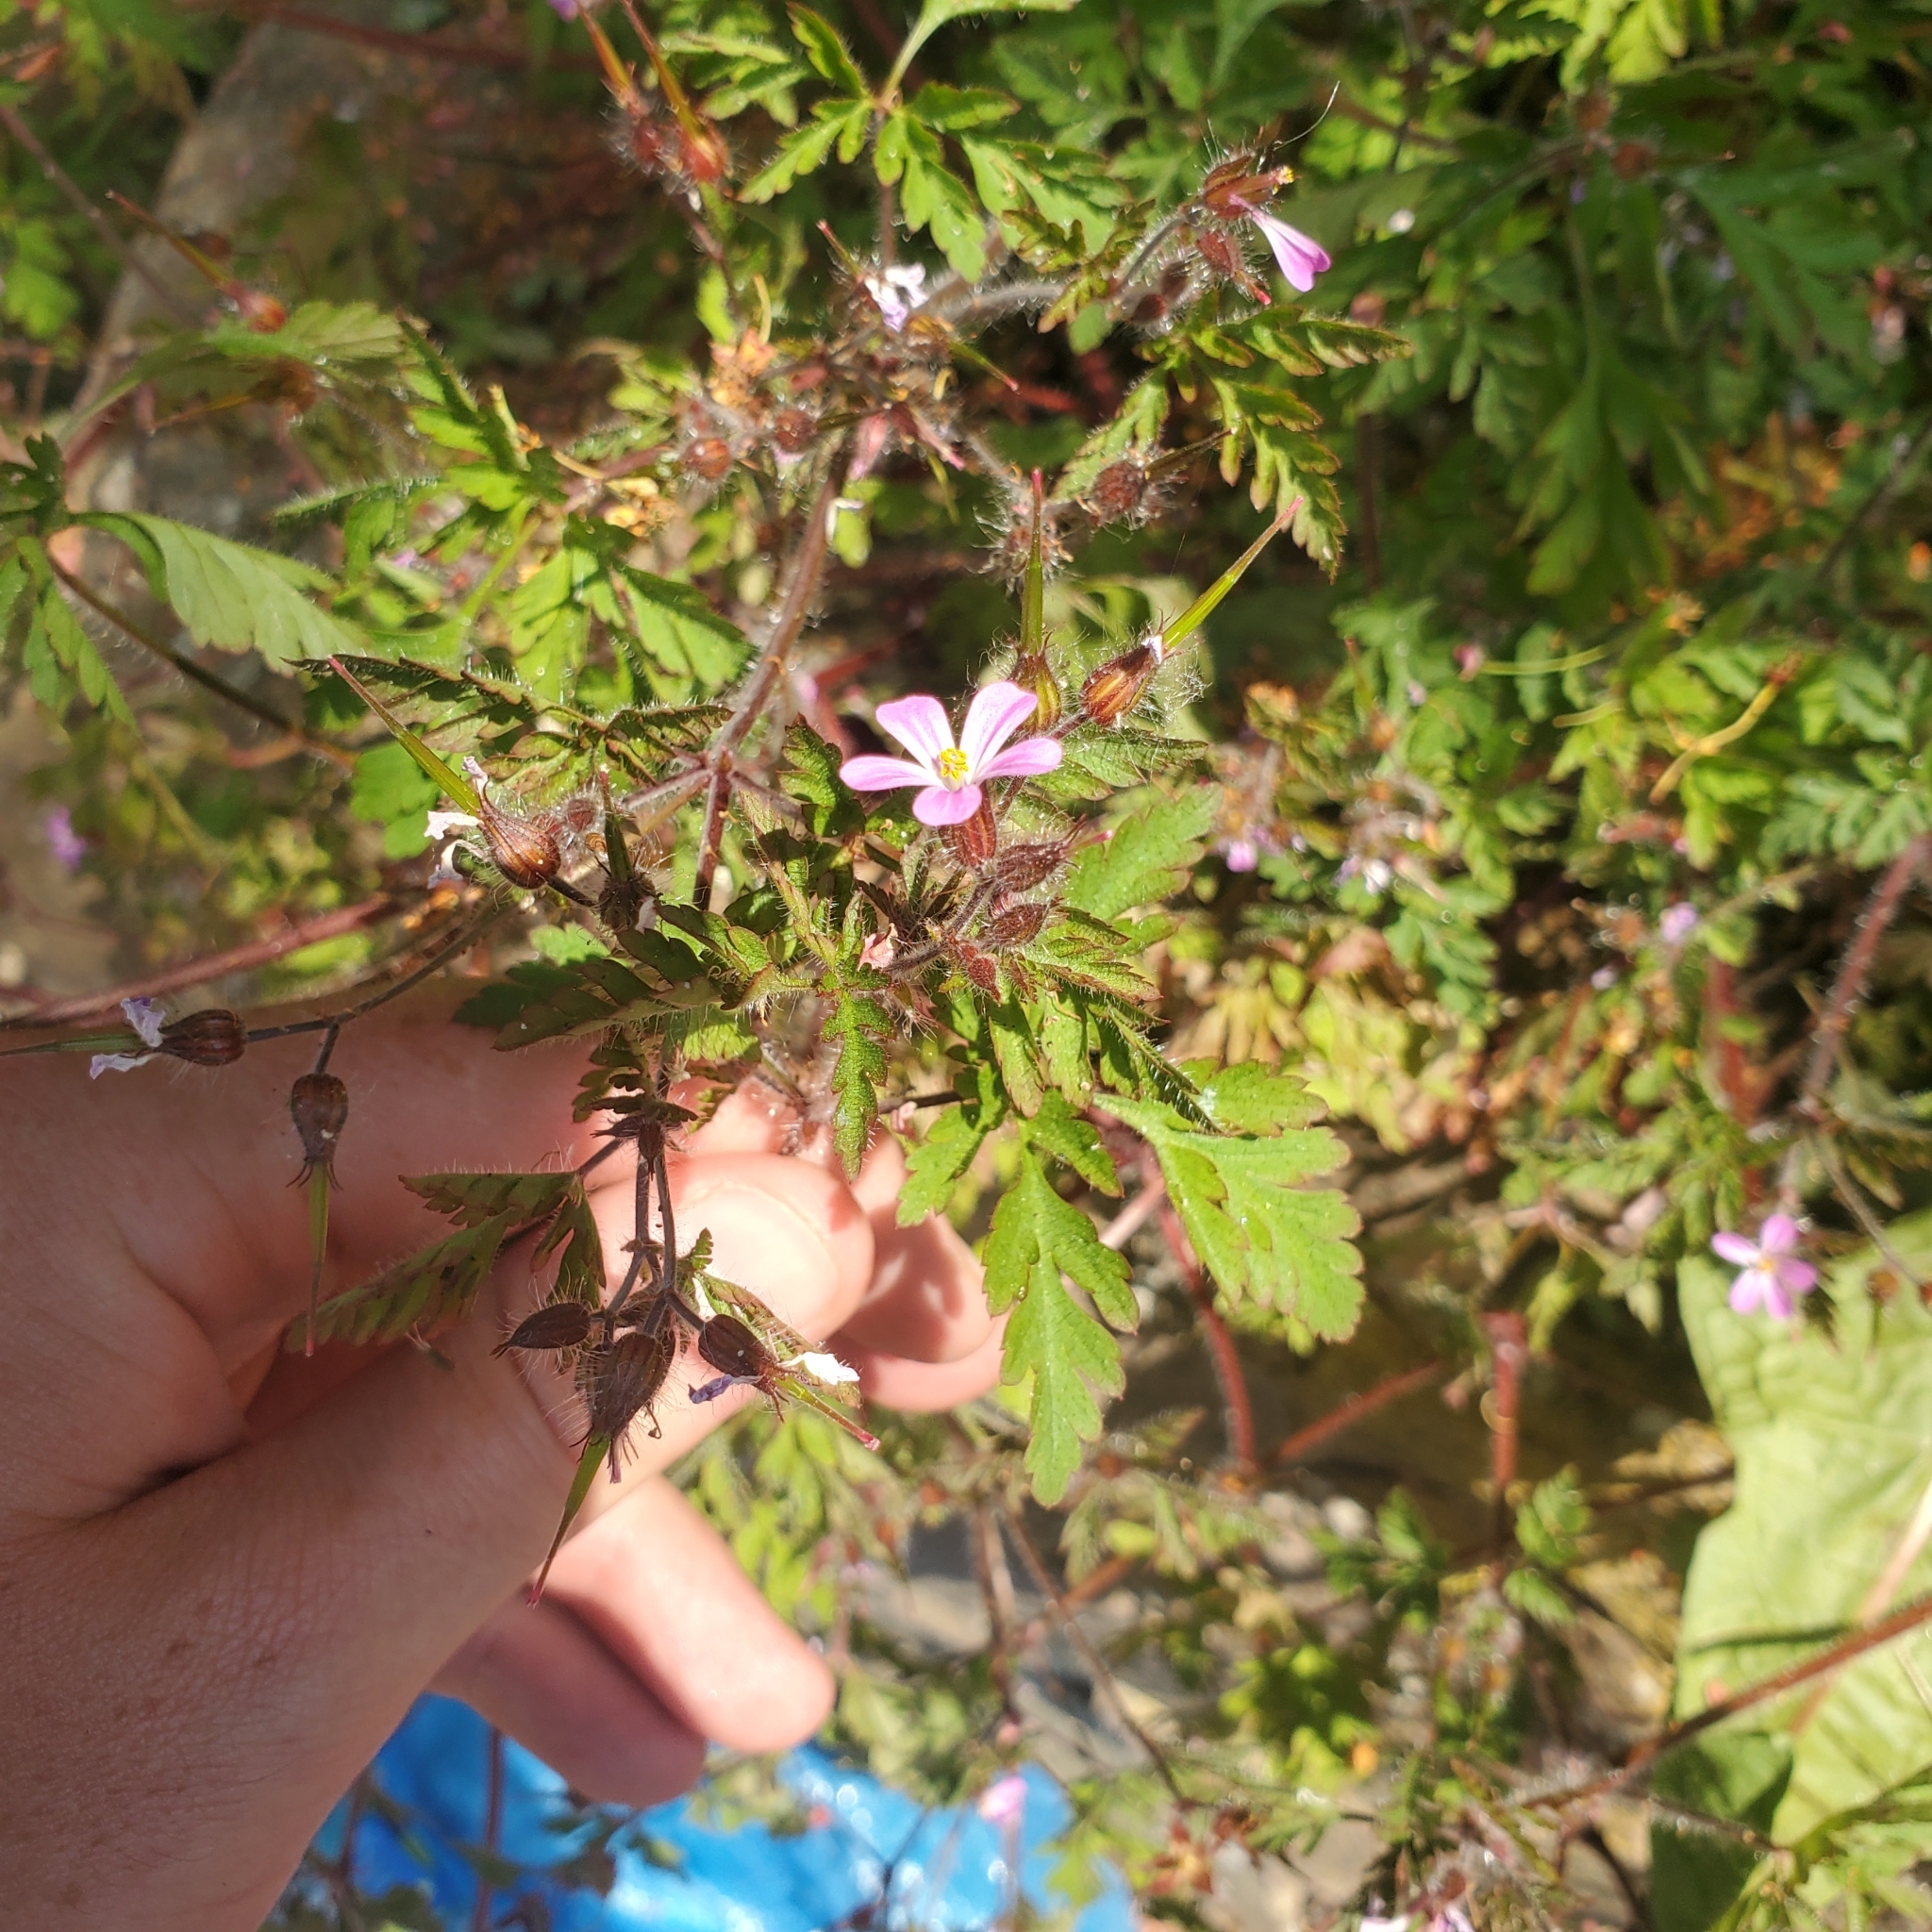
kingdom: Plantae
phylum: Tracheophyta
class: Magnoliopsida
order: Geraniales
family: Geraniaceae
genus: Geranium
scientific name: Geranium robertianum
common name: Herb-robert
